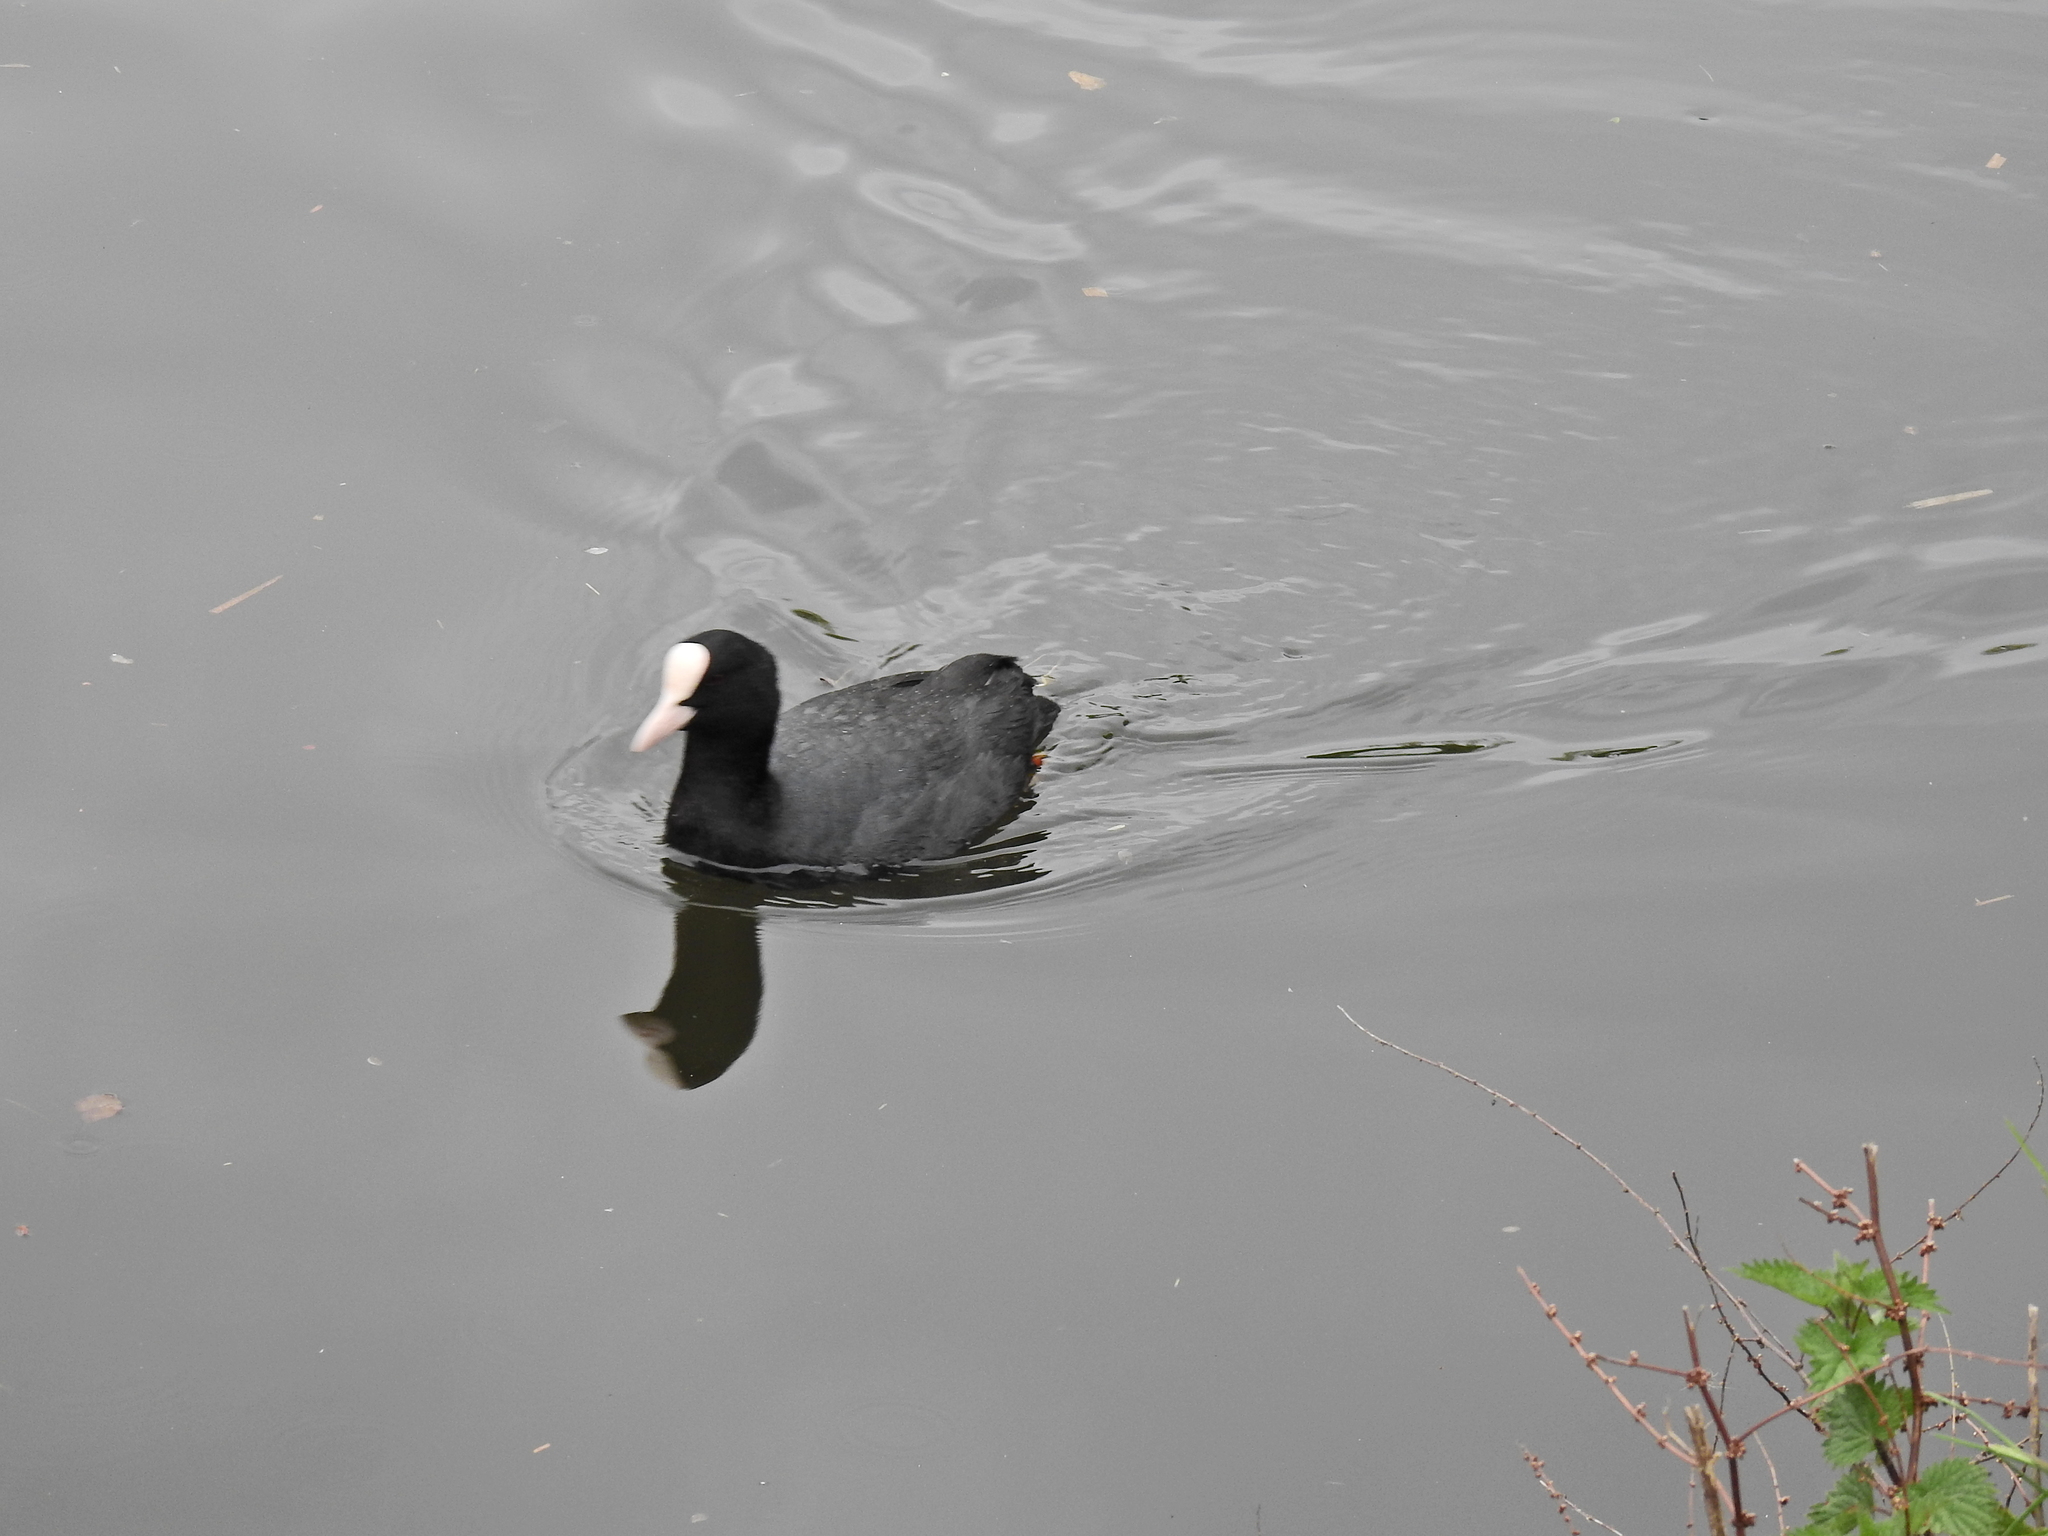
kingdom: Animalia
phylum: Chordata
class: Aves
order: Gruiformes
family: Rallidae
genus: Fulica
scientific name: Fulica atra
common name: Eurasian coot
